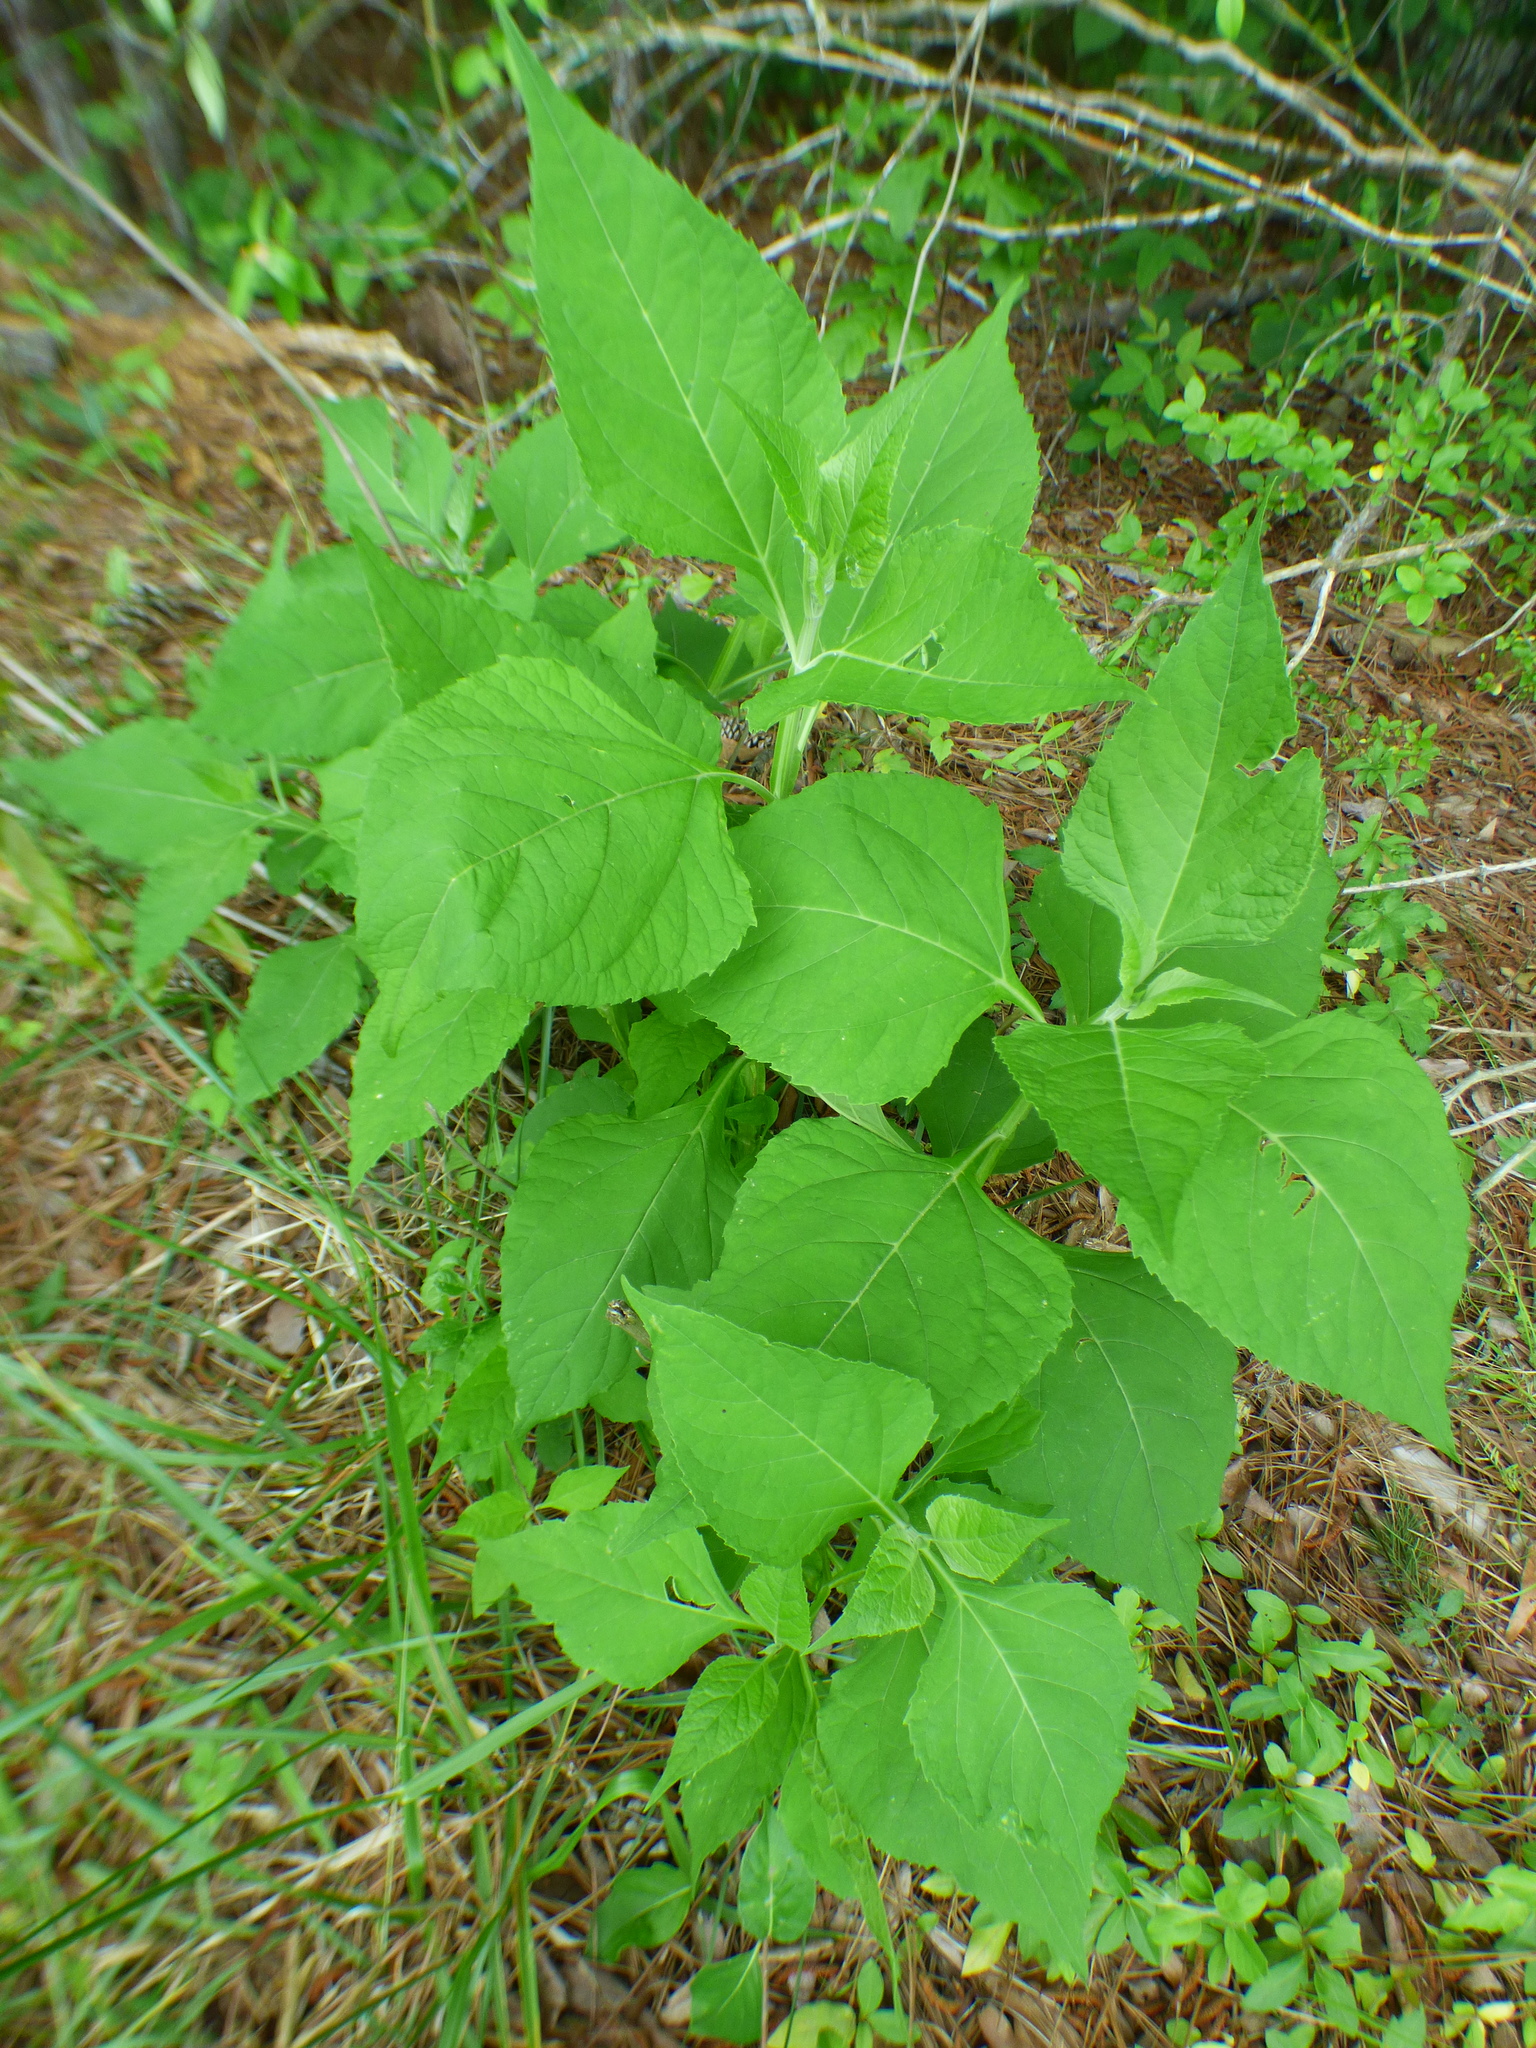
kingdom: Plantae
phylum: Tracheophyta
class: Magnoliopsida
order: Asterales
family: Asteraceae
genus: Verbesina
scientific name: Verbesina occidentalis
